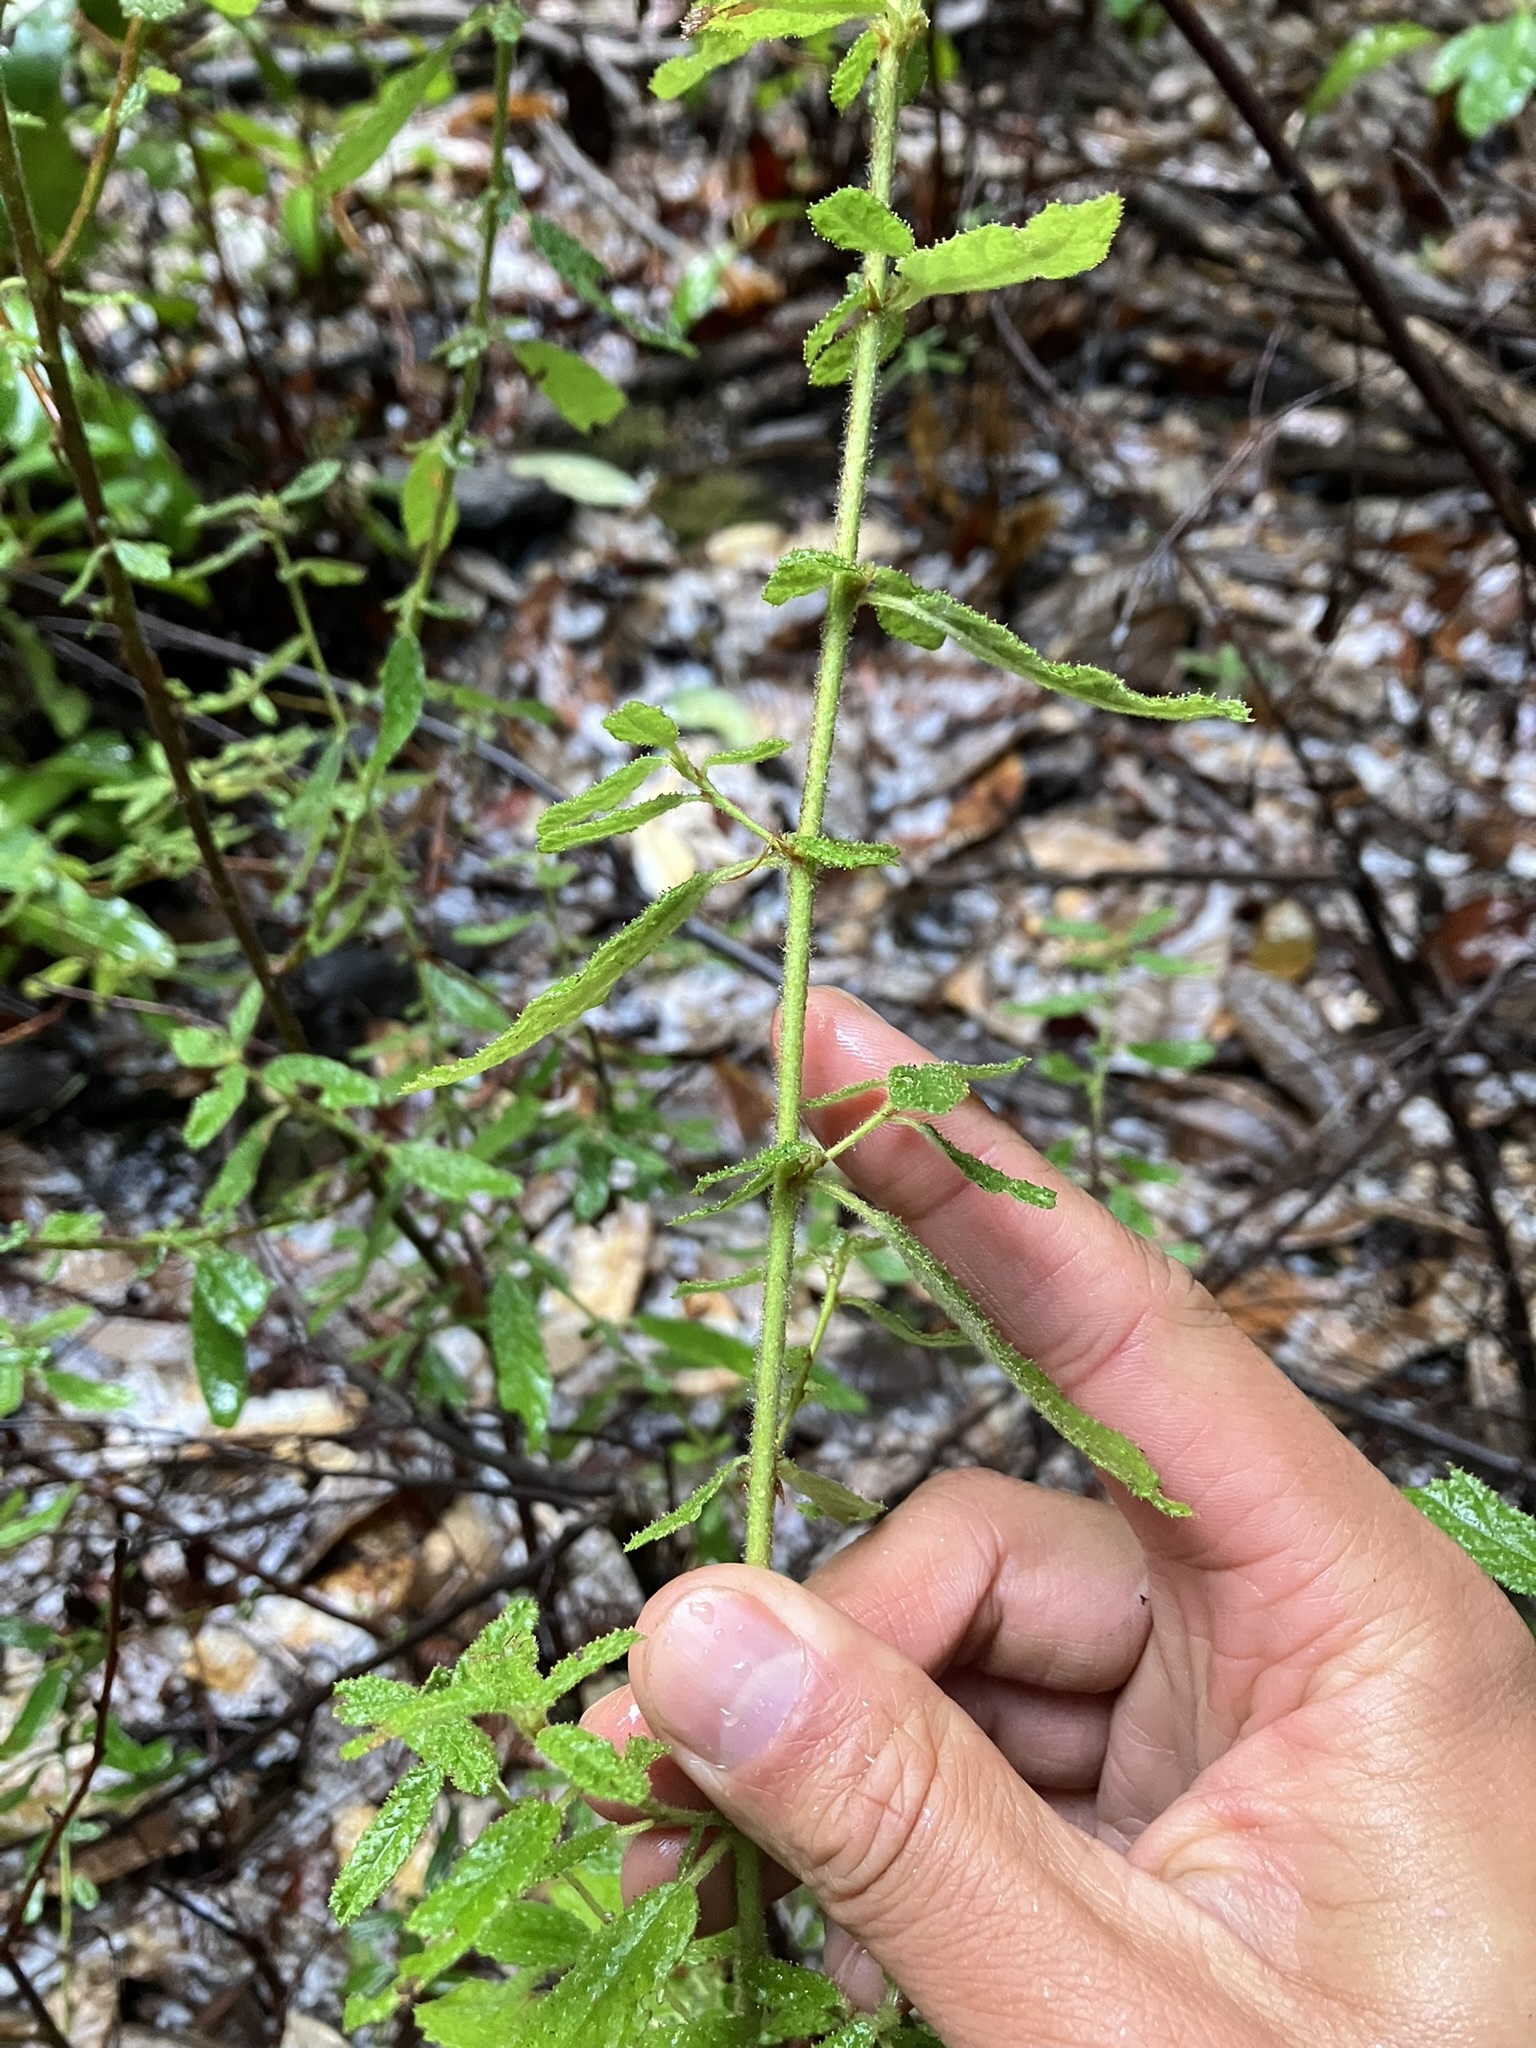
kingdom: Plantae
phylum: Tracheophyta
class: Magnoliopsida
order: Rosales
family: Rhamnaceae
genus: Ceanothus
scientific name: Ceanothus papillosus
